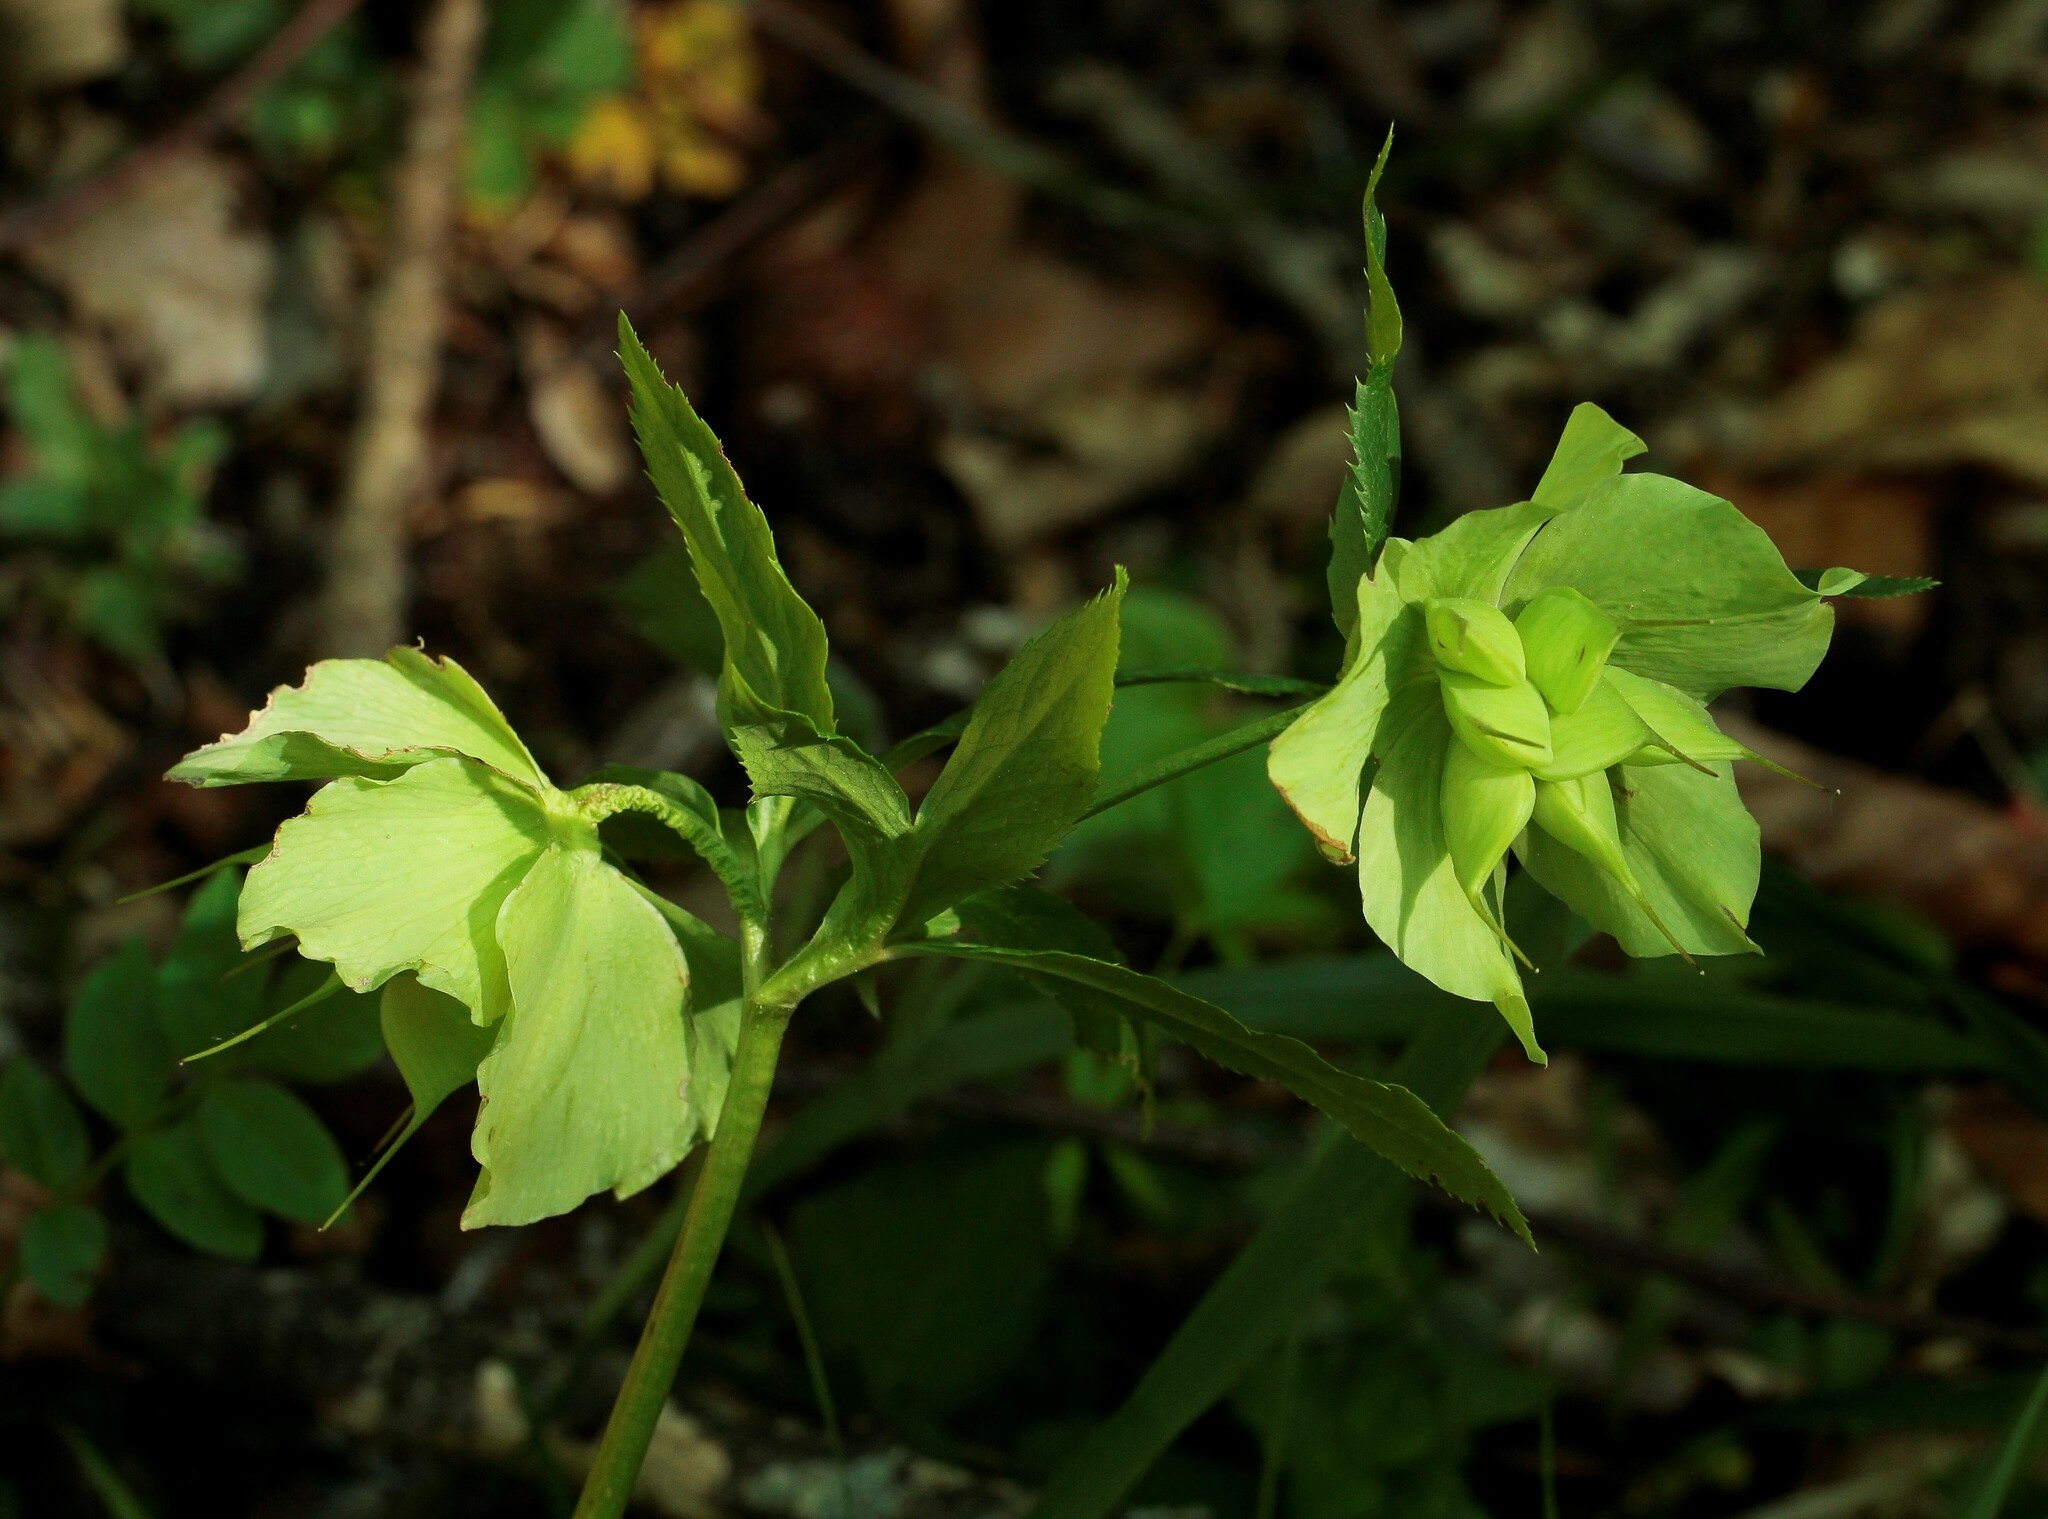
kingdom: Plantae
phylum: Tracheophyta
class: Magnoliopsida
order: Ranunculales
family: Ranunculaceae
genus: Helleborus
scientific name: Helleborus orientalis
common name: Lenten-rose
